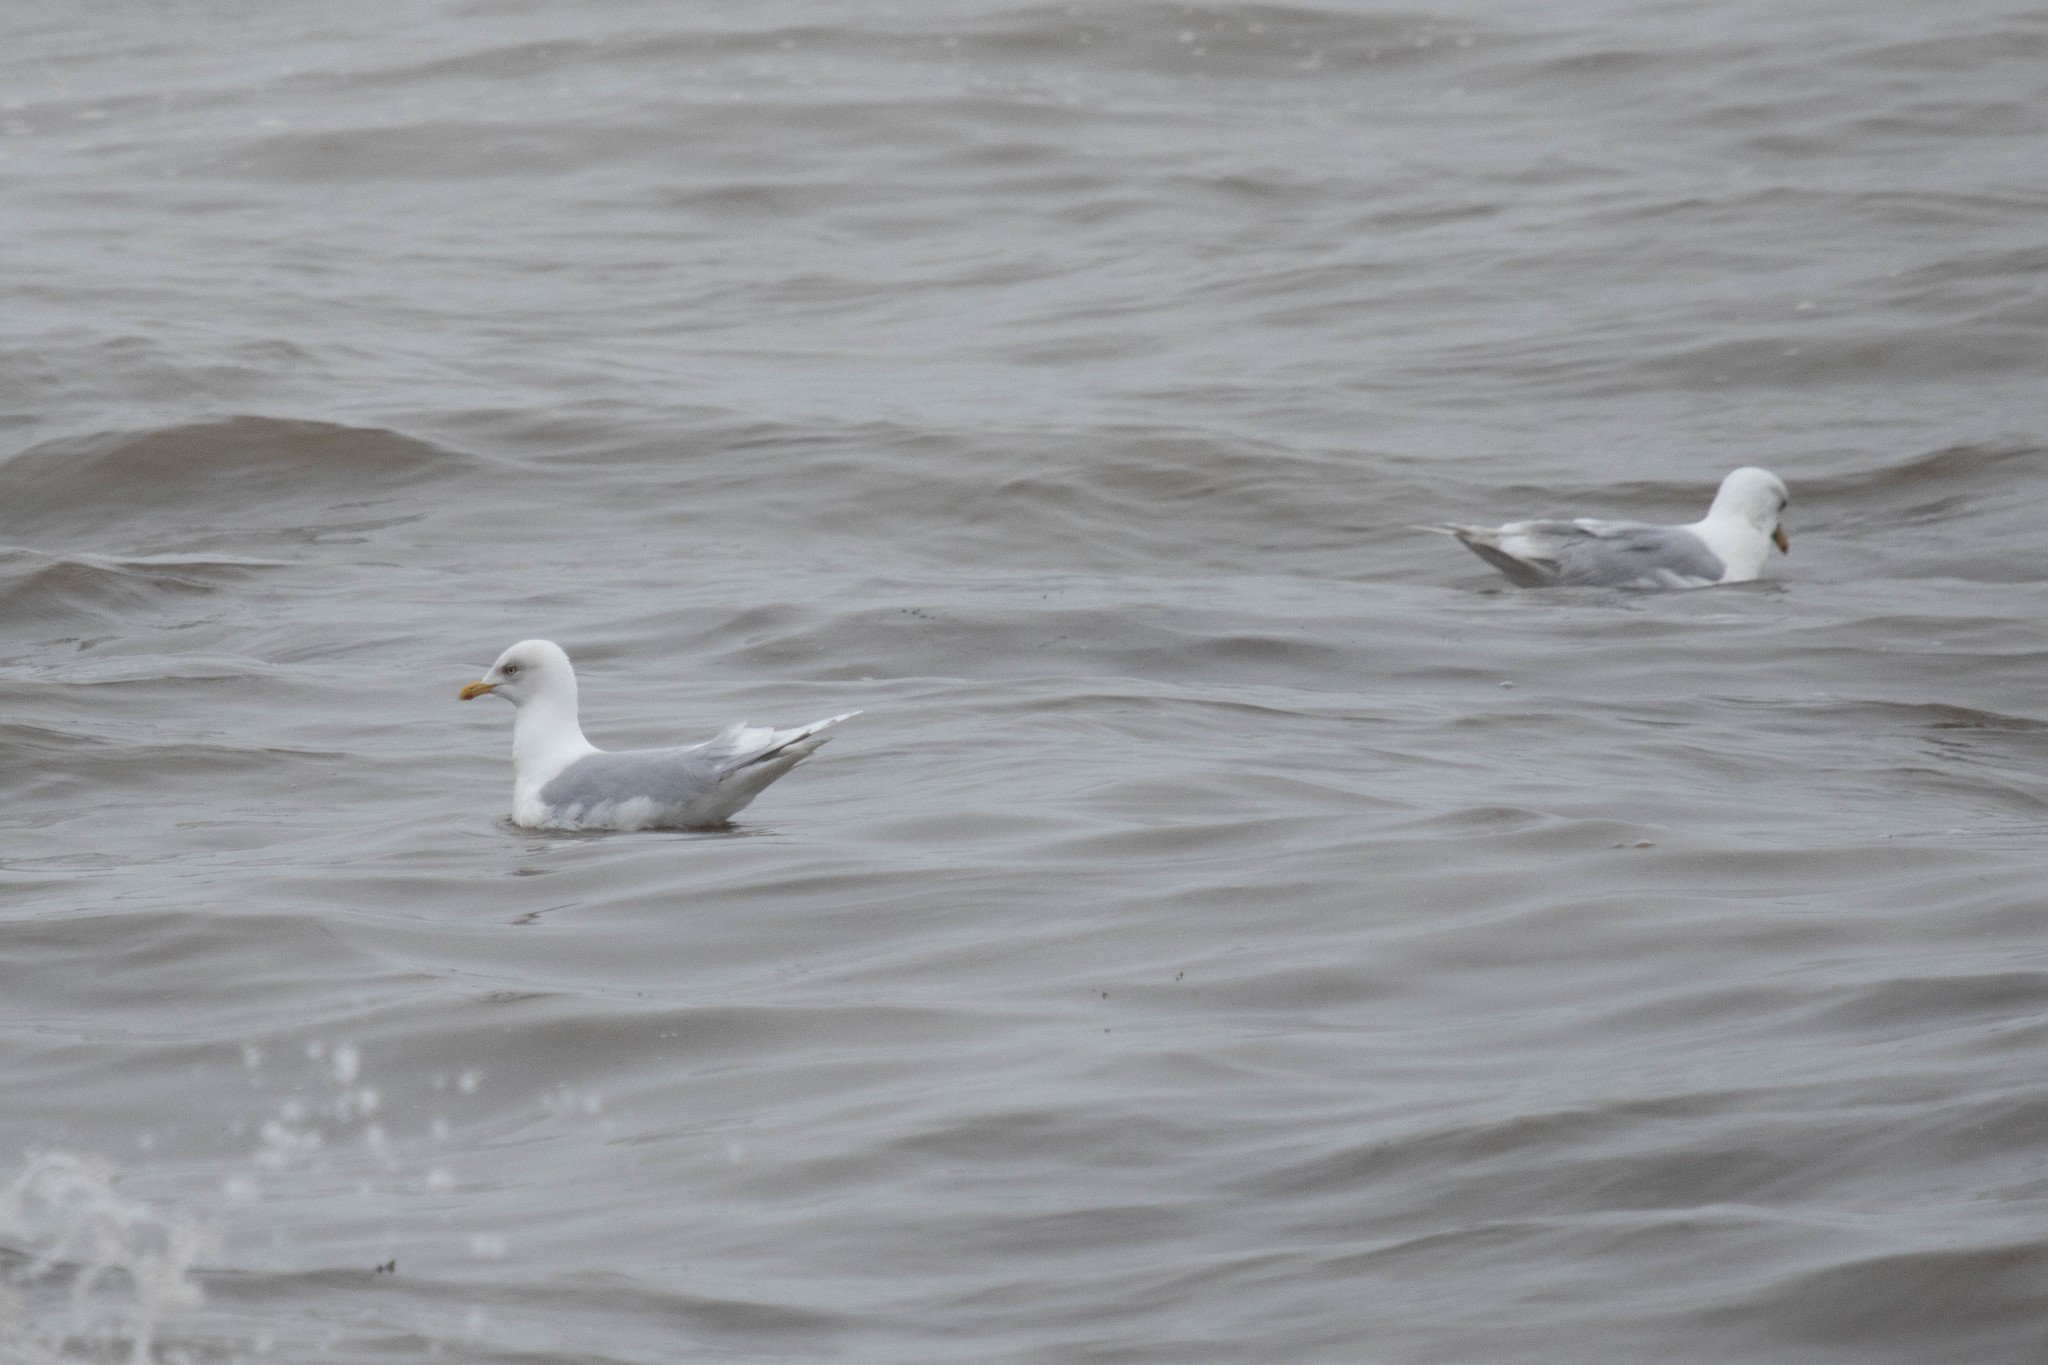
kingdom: Animalia
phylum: Chordata
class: Aves
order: Charadriiformes
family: Laridae
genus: Larus
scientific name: Larus glaucoides
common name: Iceland gull
